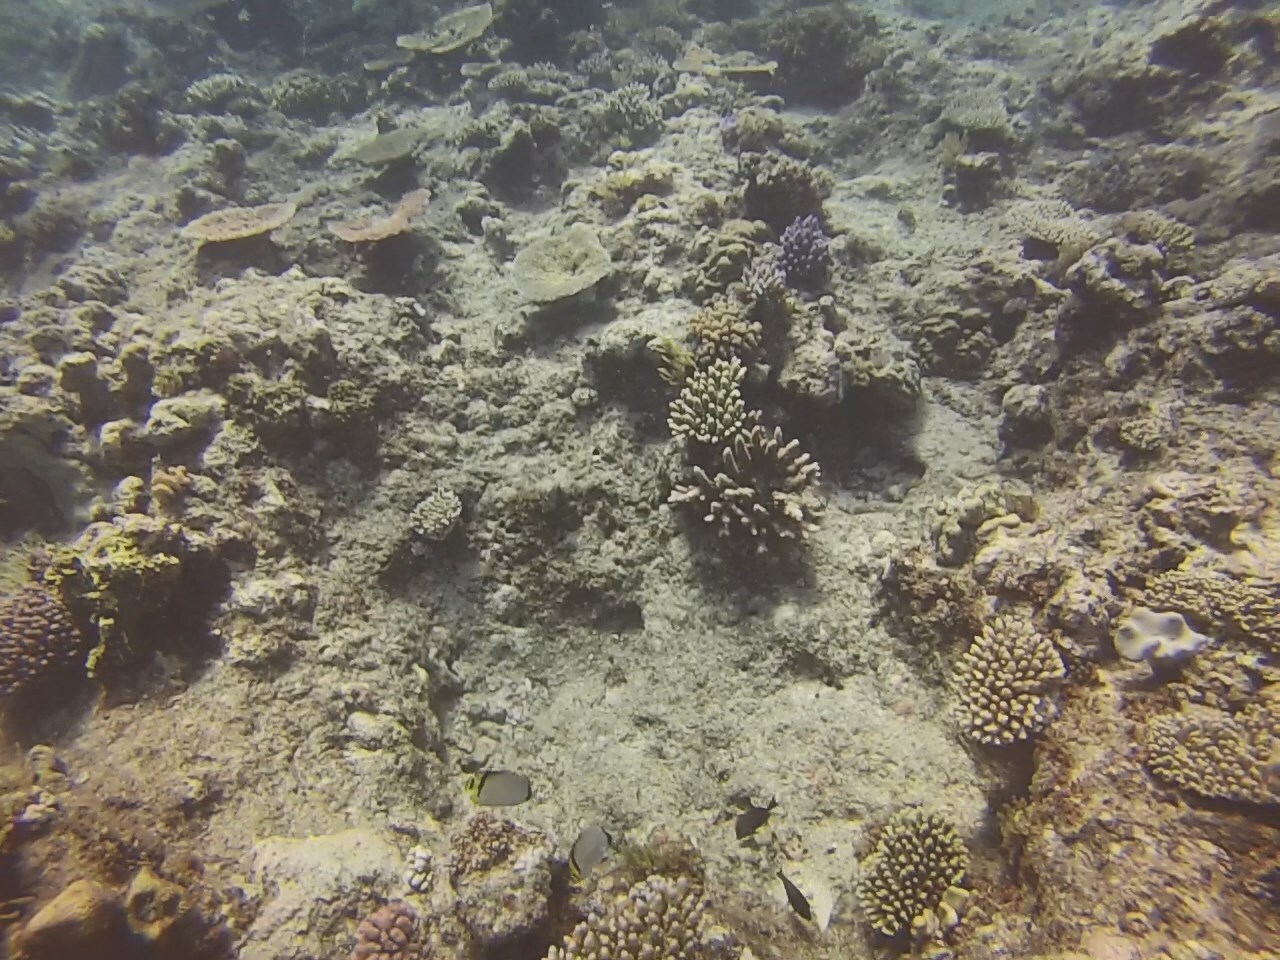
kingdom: Animalia
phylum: Chordata
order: Perciformes
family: Chaetodontidae
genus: Chaetodon
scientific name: Chaetodon vagabundus
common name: Vagabond butterflyfish
